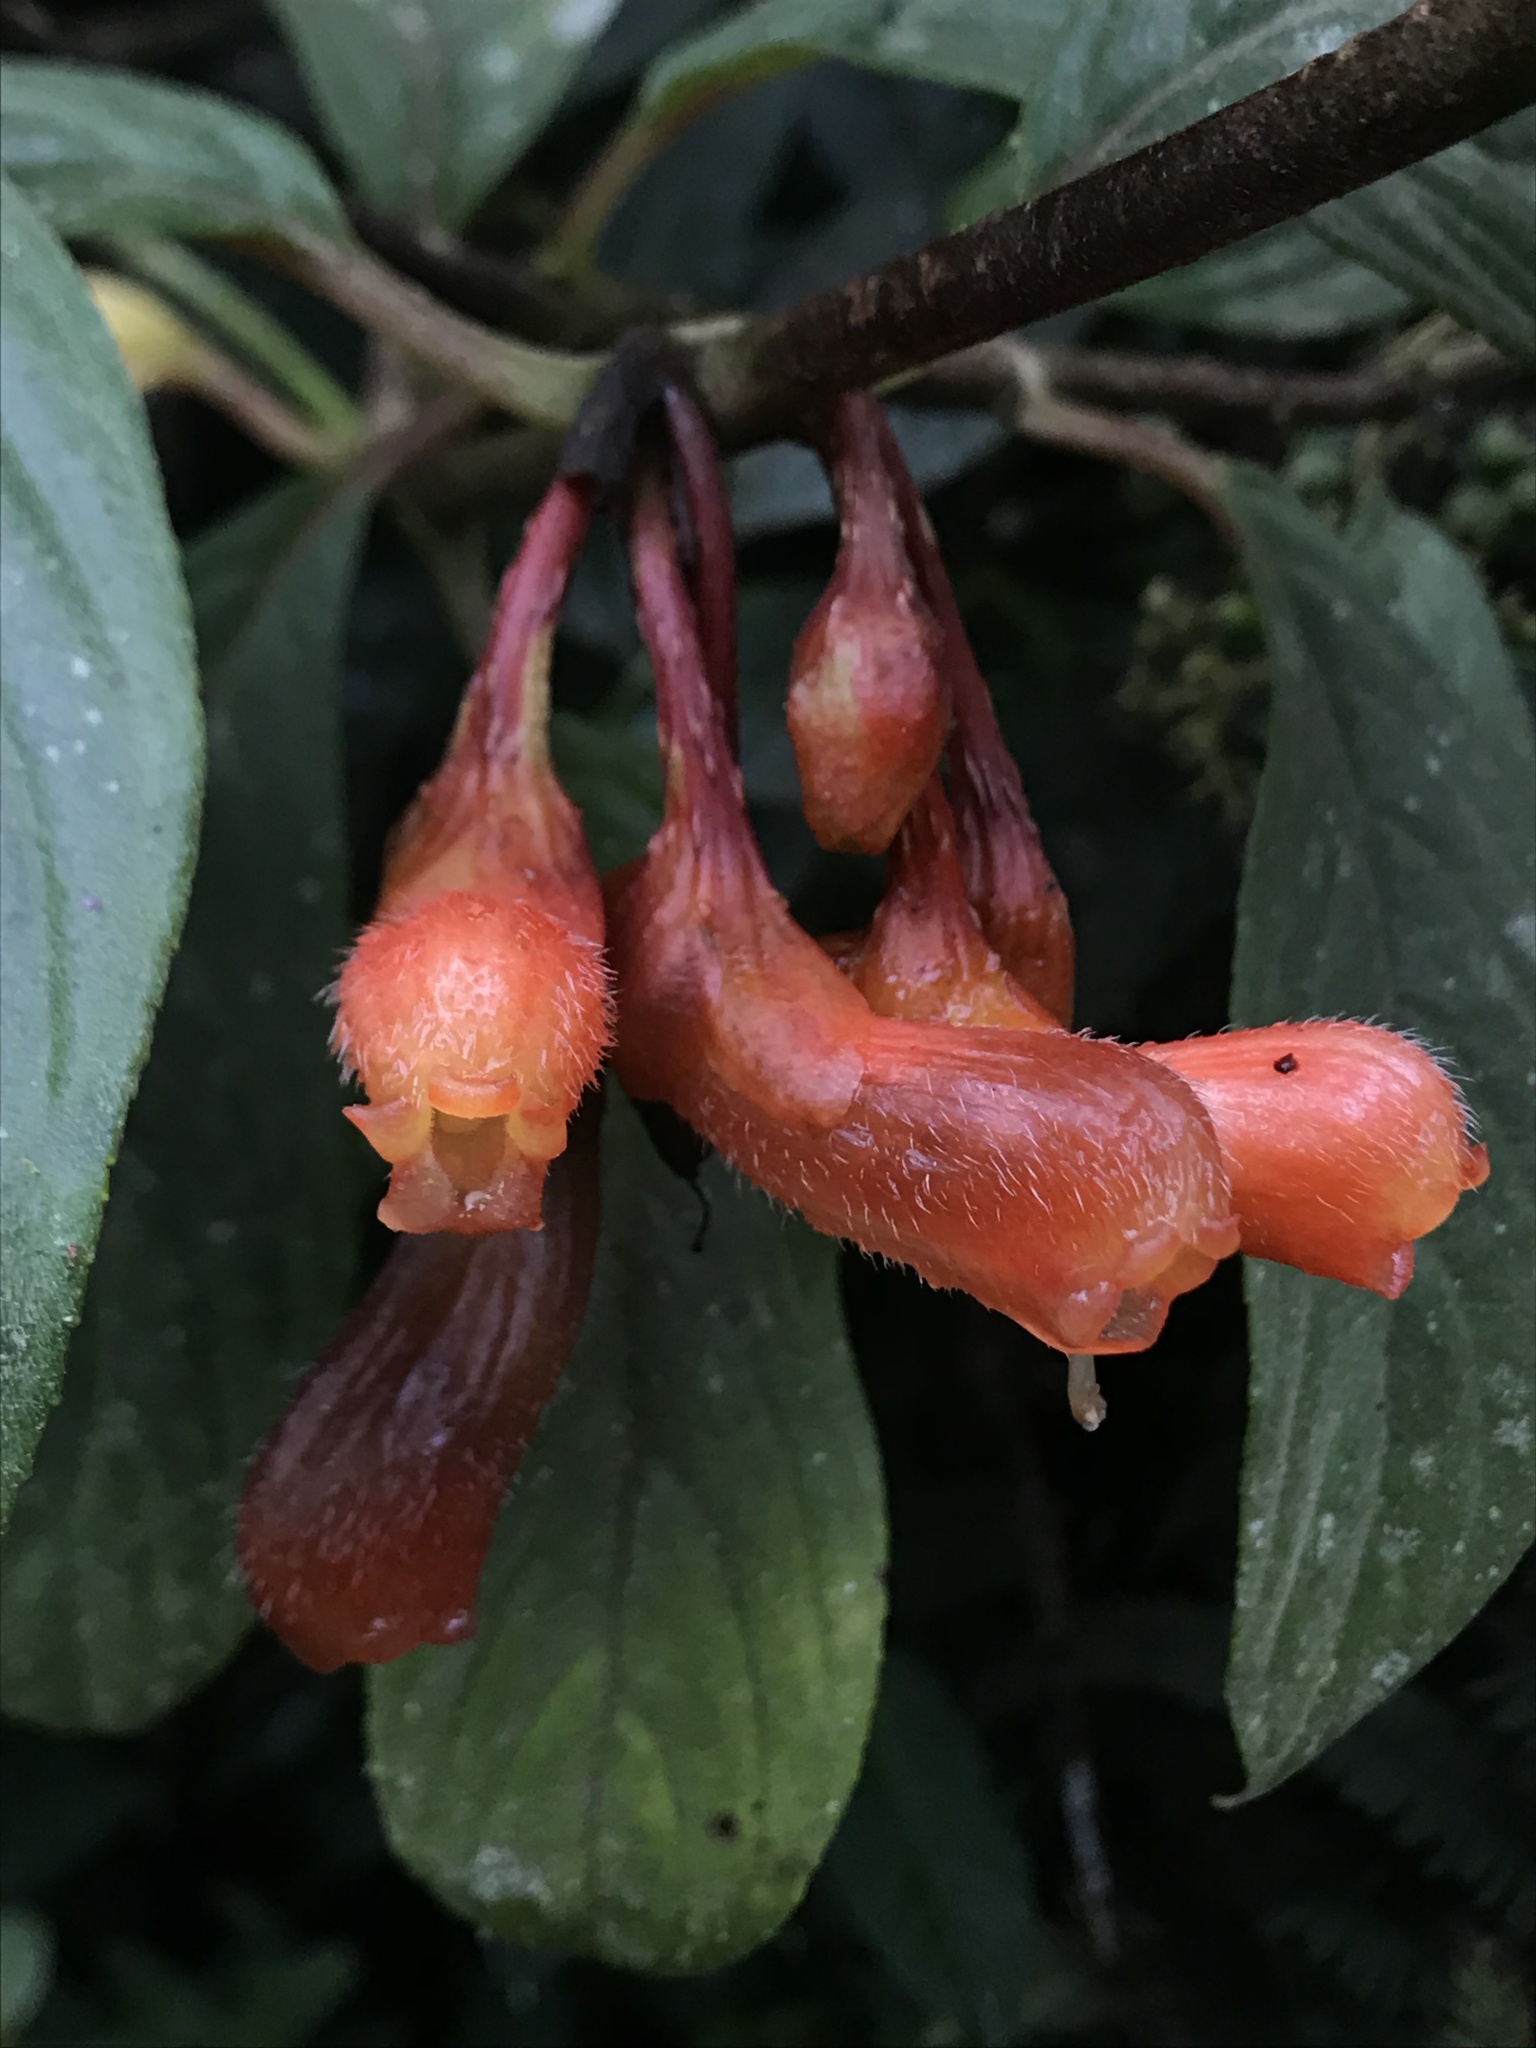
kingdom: Plantae
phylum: Tracheophyta
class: Magnoliopsida
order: Lamiales
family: Gesneriaceae
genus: Glossoloma
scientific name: Glossoloma herthae
